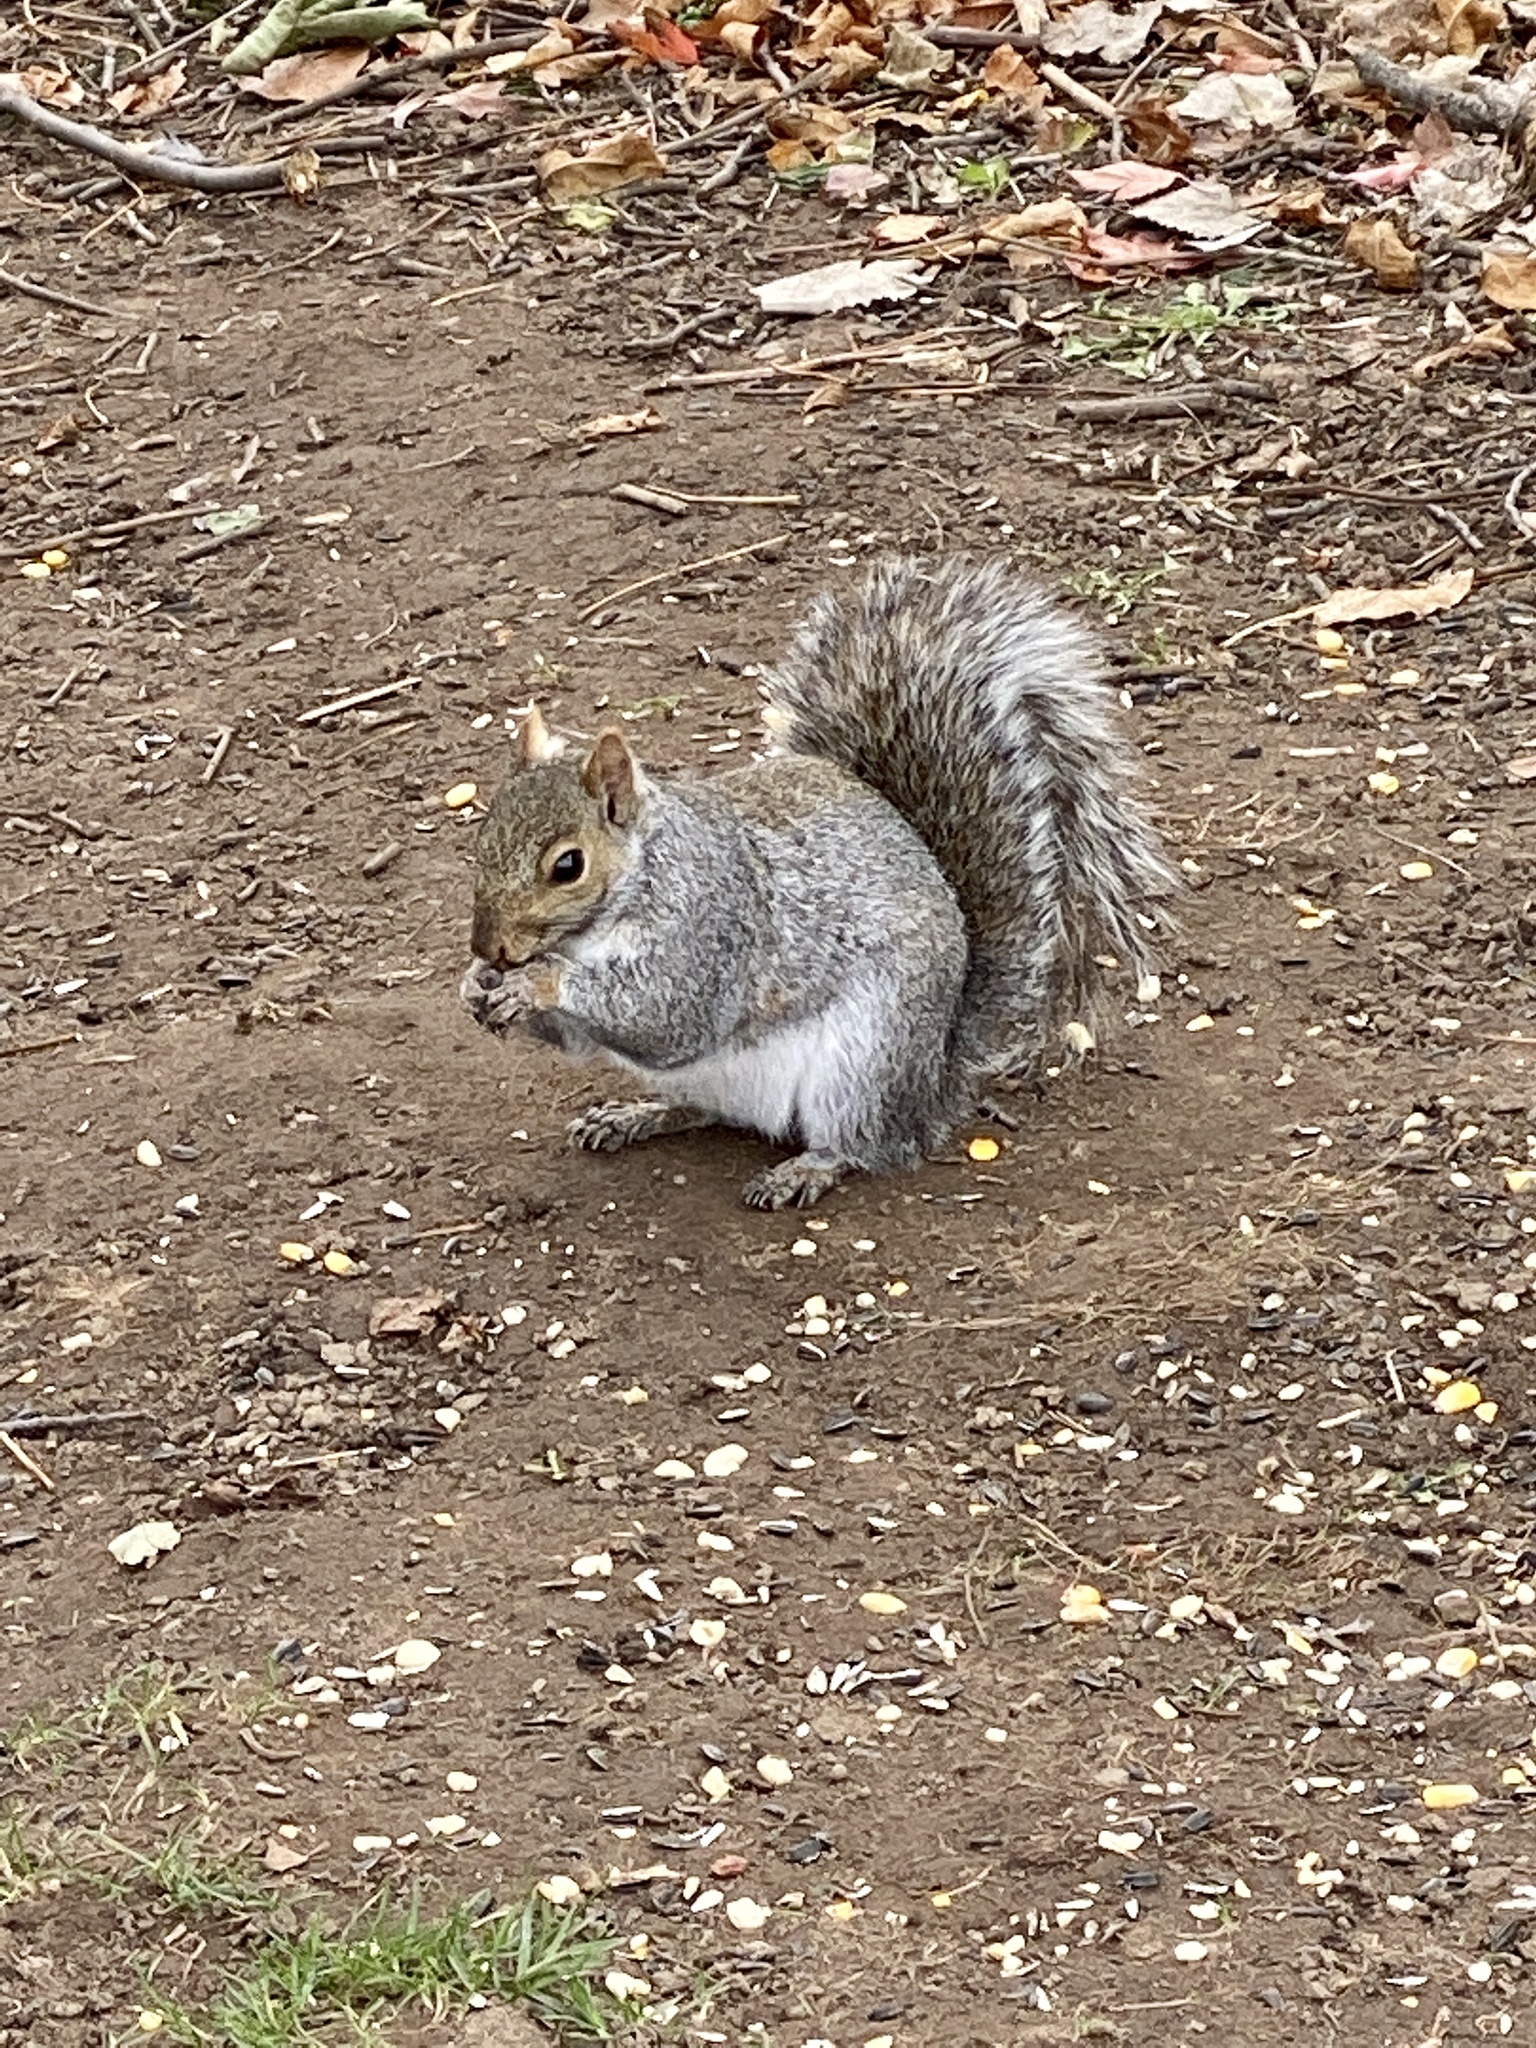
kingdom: Animalia
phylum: Chordata
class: Mammalia
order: Rodentia
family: Sciuridae
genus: Sciurus
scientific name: Sciurus carolinensis
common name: Eastern gray squirrel
